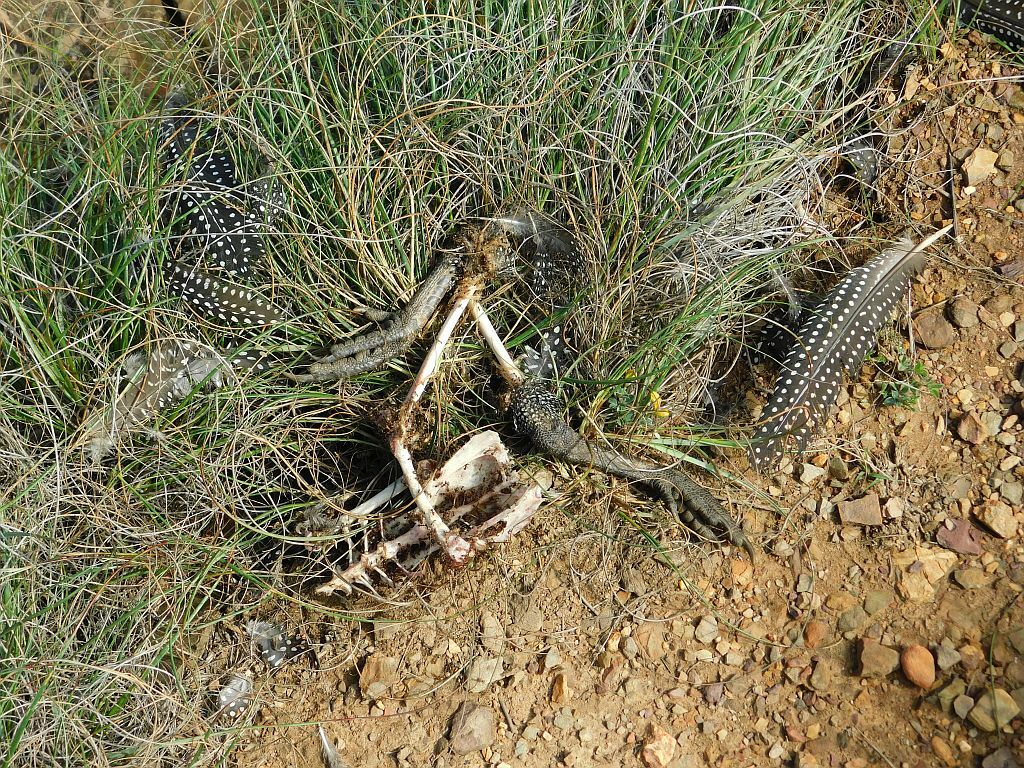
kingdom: Animalia
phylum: Chordata
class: Aves
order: Galliformes
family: Numididae
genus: Numida
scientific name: Numida meleagris
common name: Helmeted guineafowl
